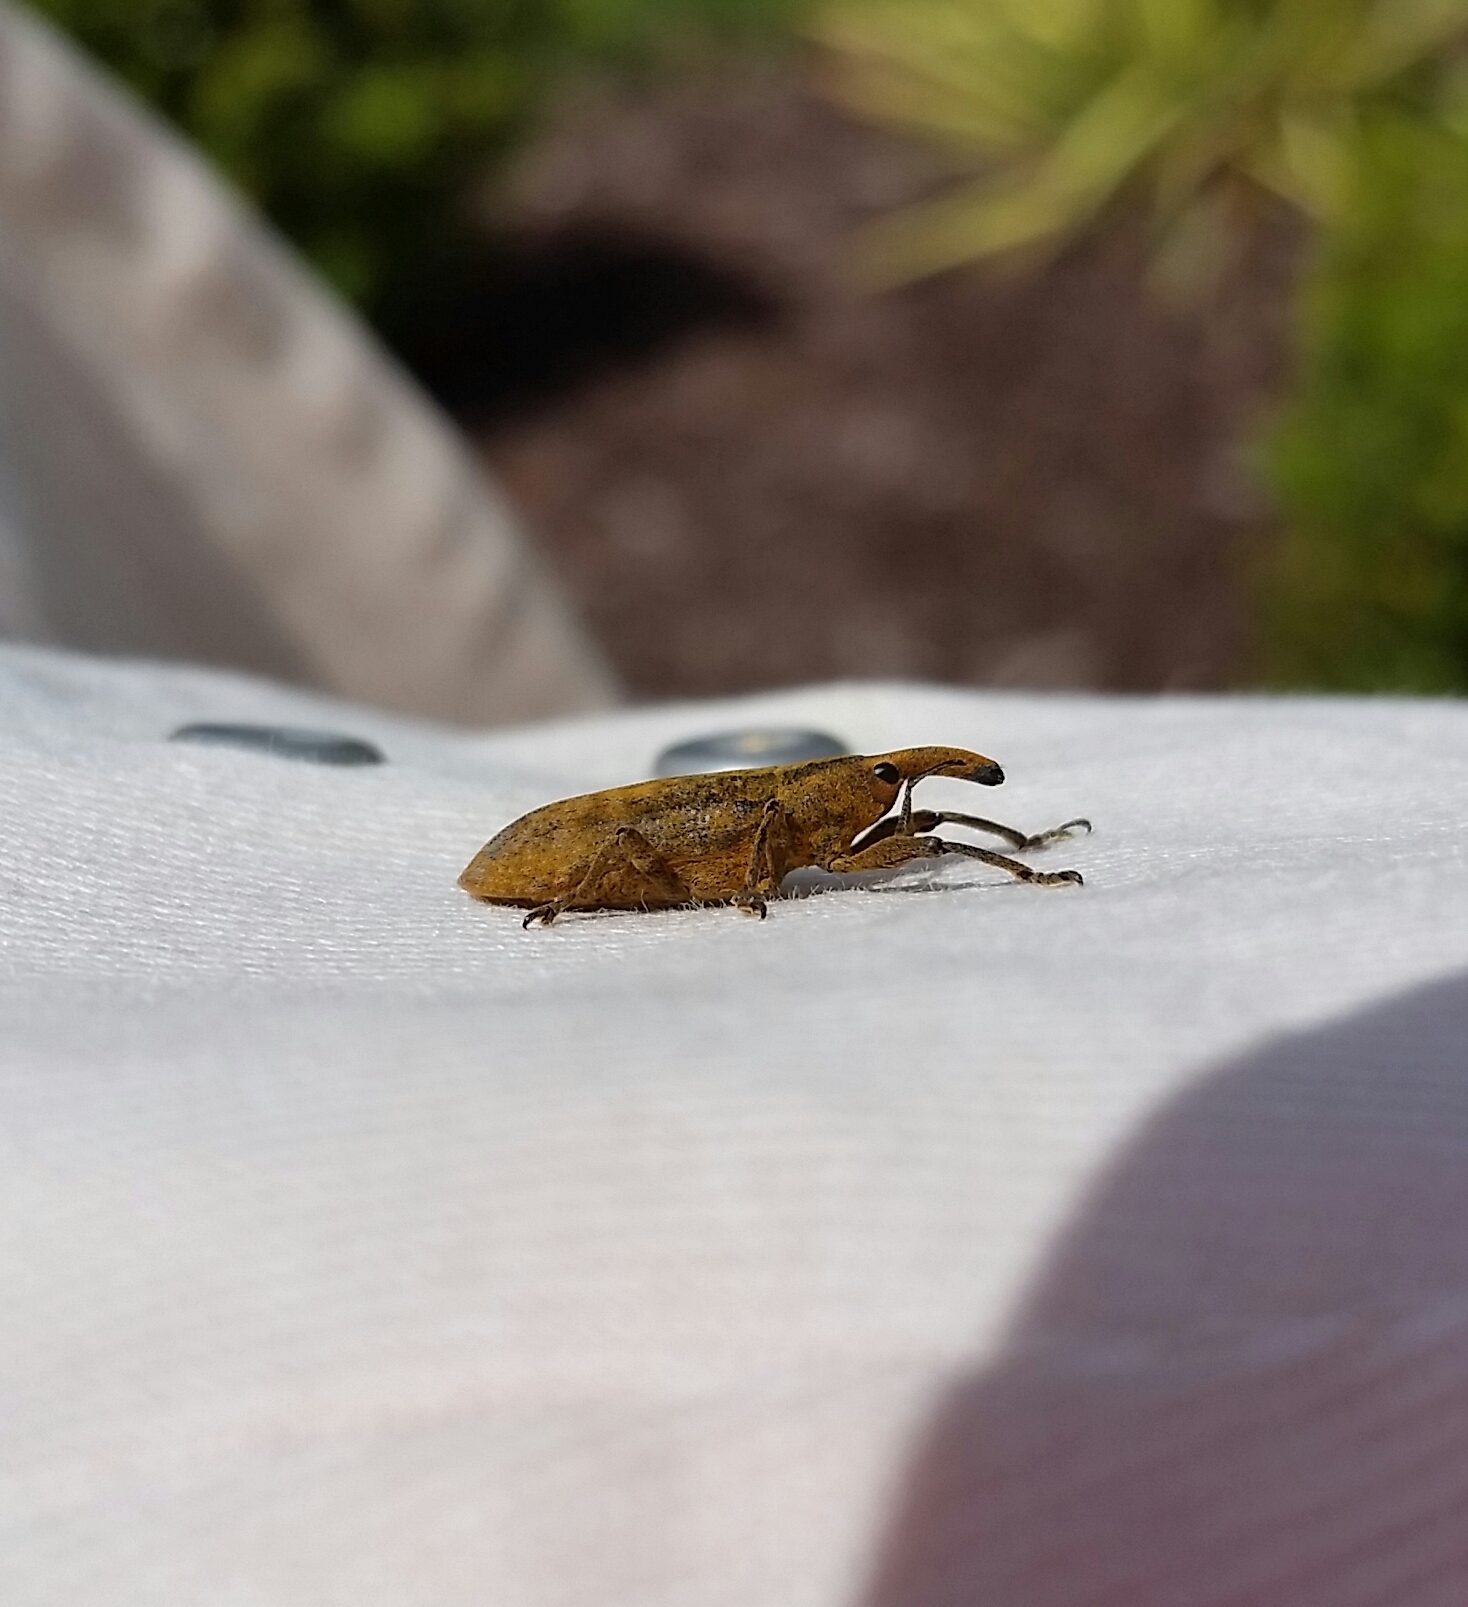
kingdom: Animalia
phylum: Arthropoda
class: Insecta
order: Coleoptera
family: Curculionidae
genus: Lixus
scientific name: Lixus concavus
